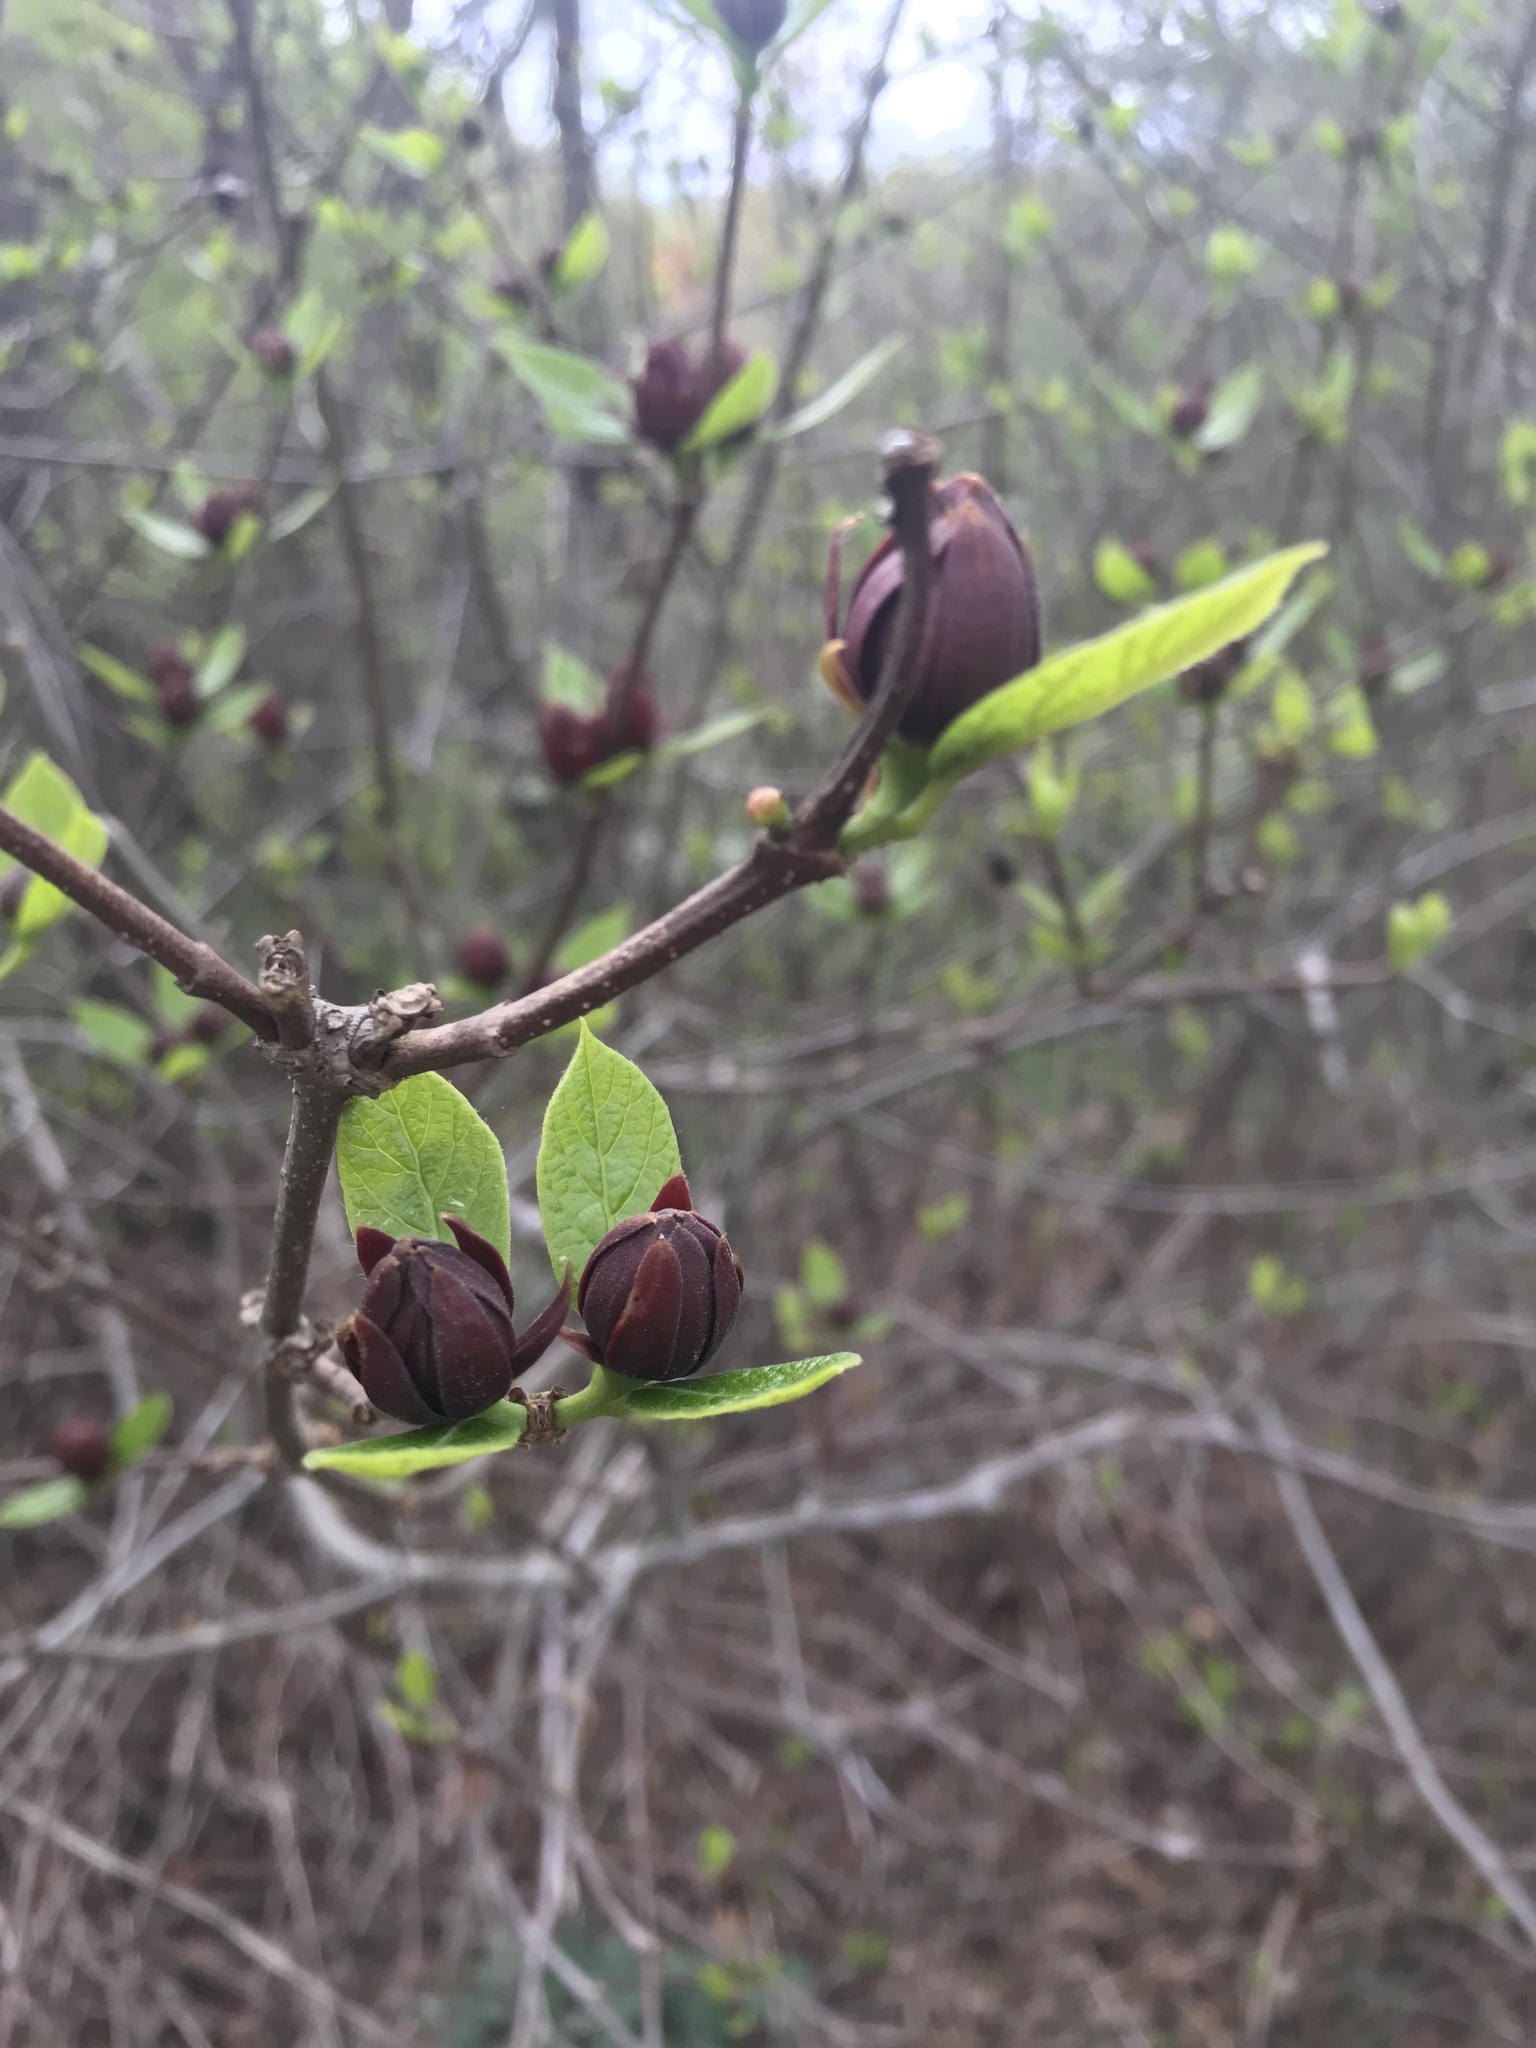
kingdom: Plantae
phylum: Tracheophyta
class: Magnoliopsida
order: Laurales
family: Calycanthaceae
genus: Calycanthus
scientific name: Calycanthus floridus
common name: Carolina-allspice
